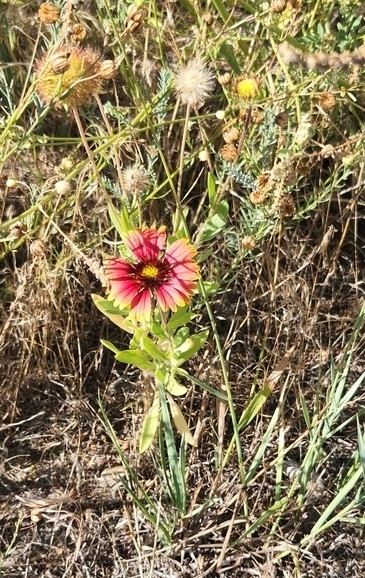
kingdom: Plantae
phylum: Tracheophyta
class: Magnoliopsida
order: Asterales
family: Asteraceae
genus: Gaillardia
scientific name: Gaillardia pulchella
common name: Firewheel
